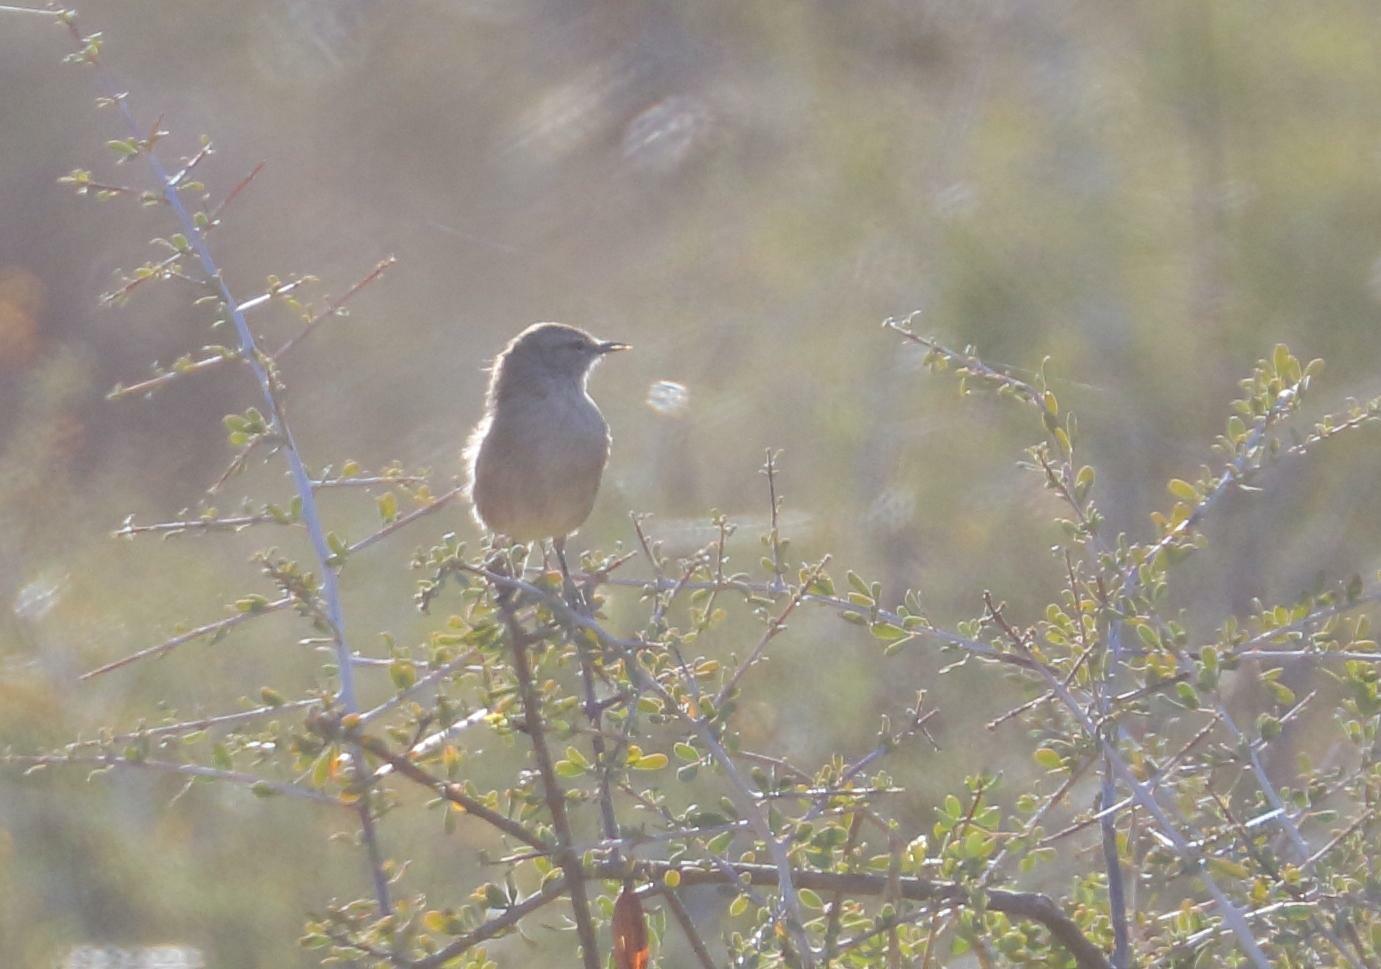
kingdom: Animalia
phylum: Chordata
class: Aves
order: Passeriformes
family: Cisticolidae
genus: Eremomela
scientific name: Eremomela icteropygialis
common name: Yellow-bellied eremomela
